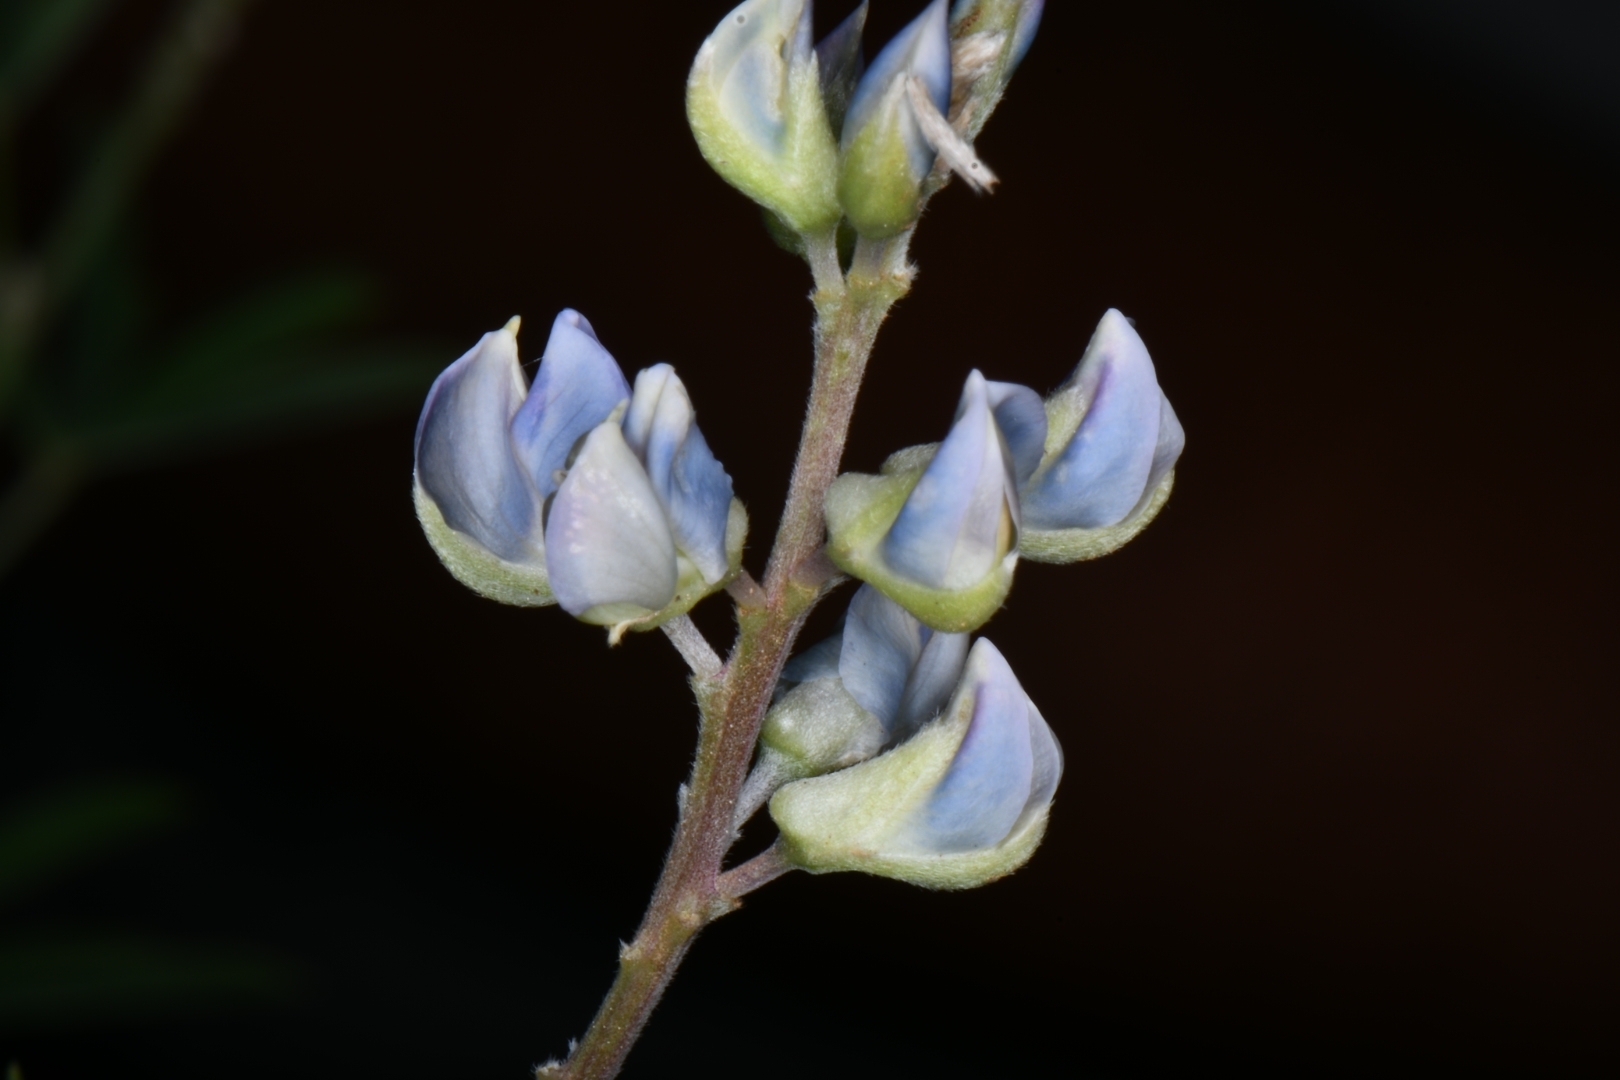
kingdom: Plantae
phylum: Tracheophyta
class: Magnoliopsida
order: Fabales
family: Fabaceae
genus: Lupinus
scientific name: Lupinus argenteus
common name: Silvery lupine
